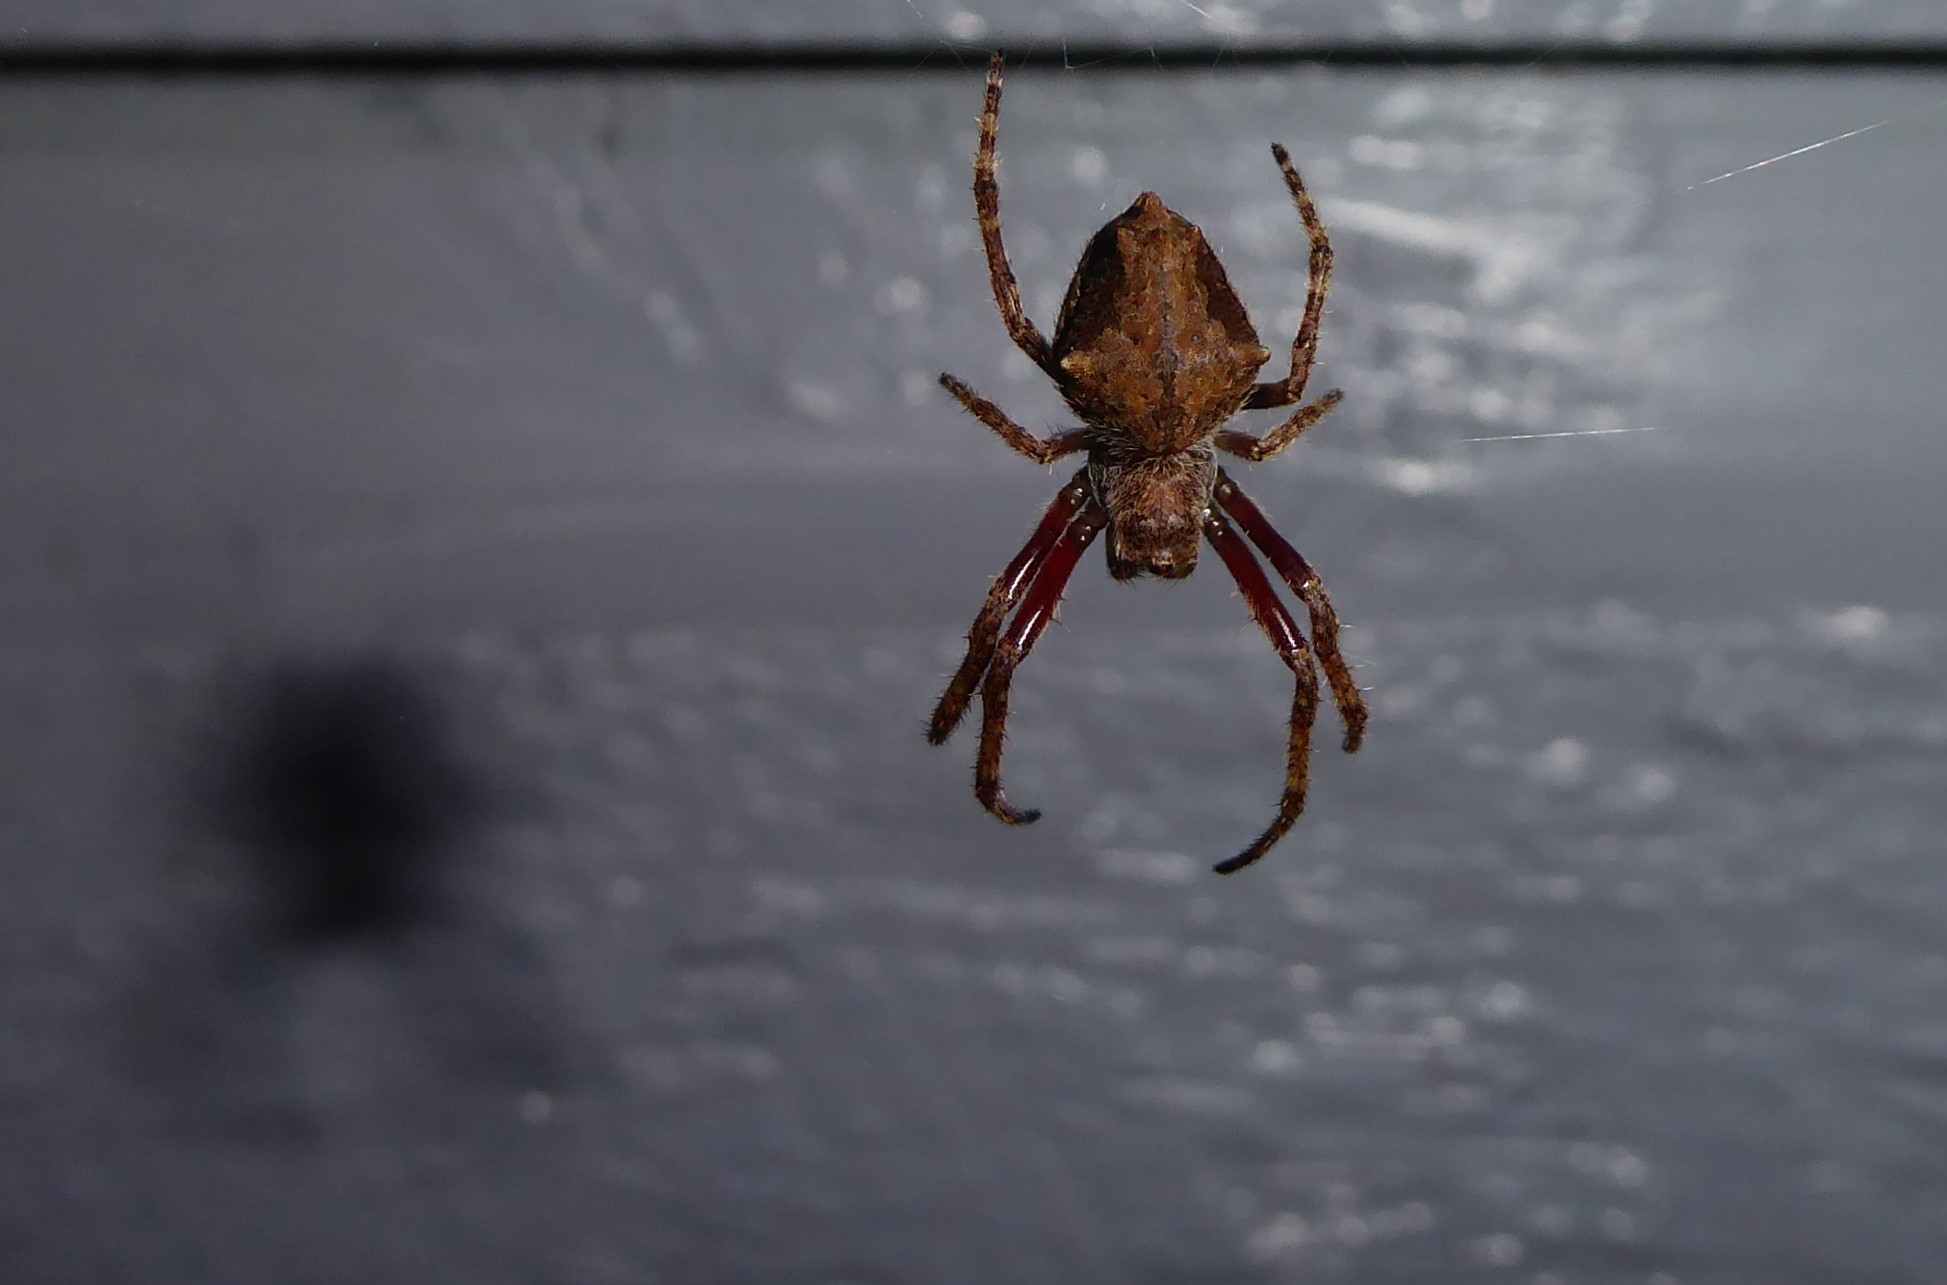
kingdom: Animalia
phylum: Arthropoda
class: Arachnida
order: Araneae
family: Araneidae
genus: Eriophora
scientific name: Eriophora pustulosa
